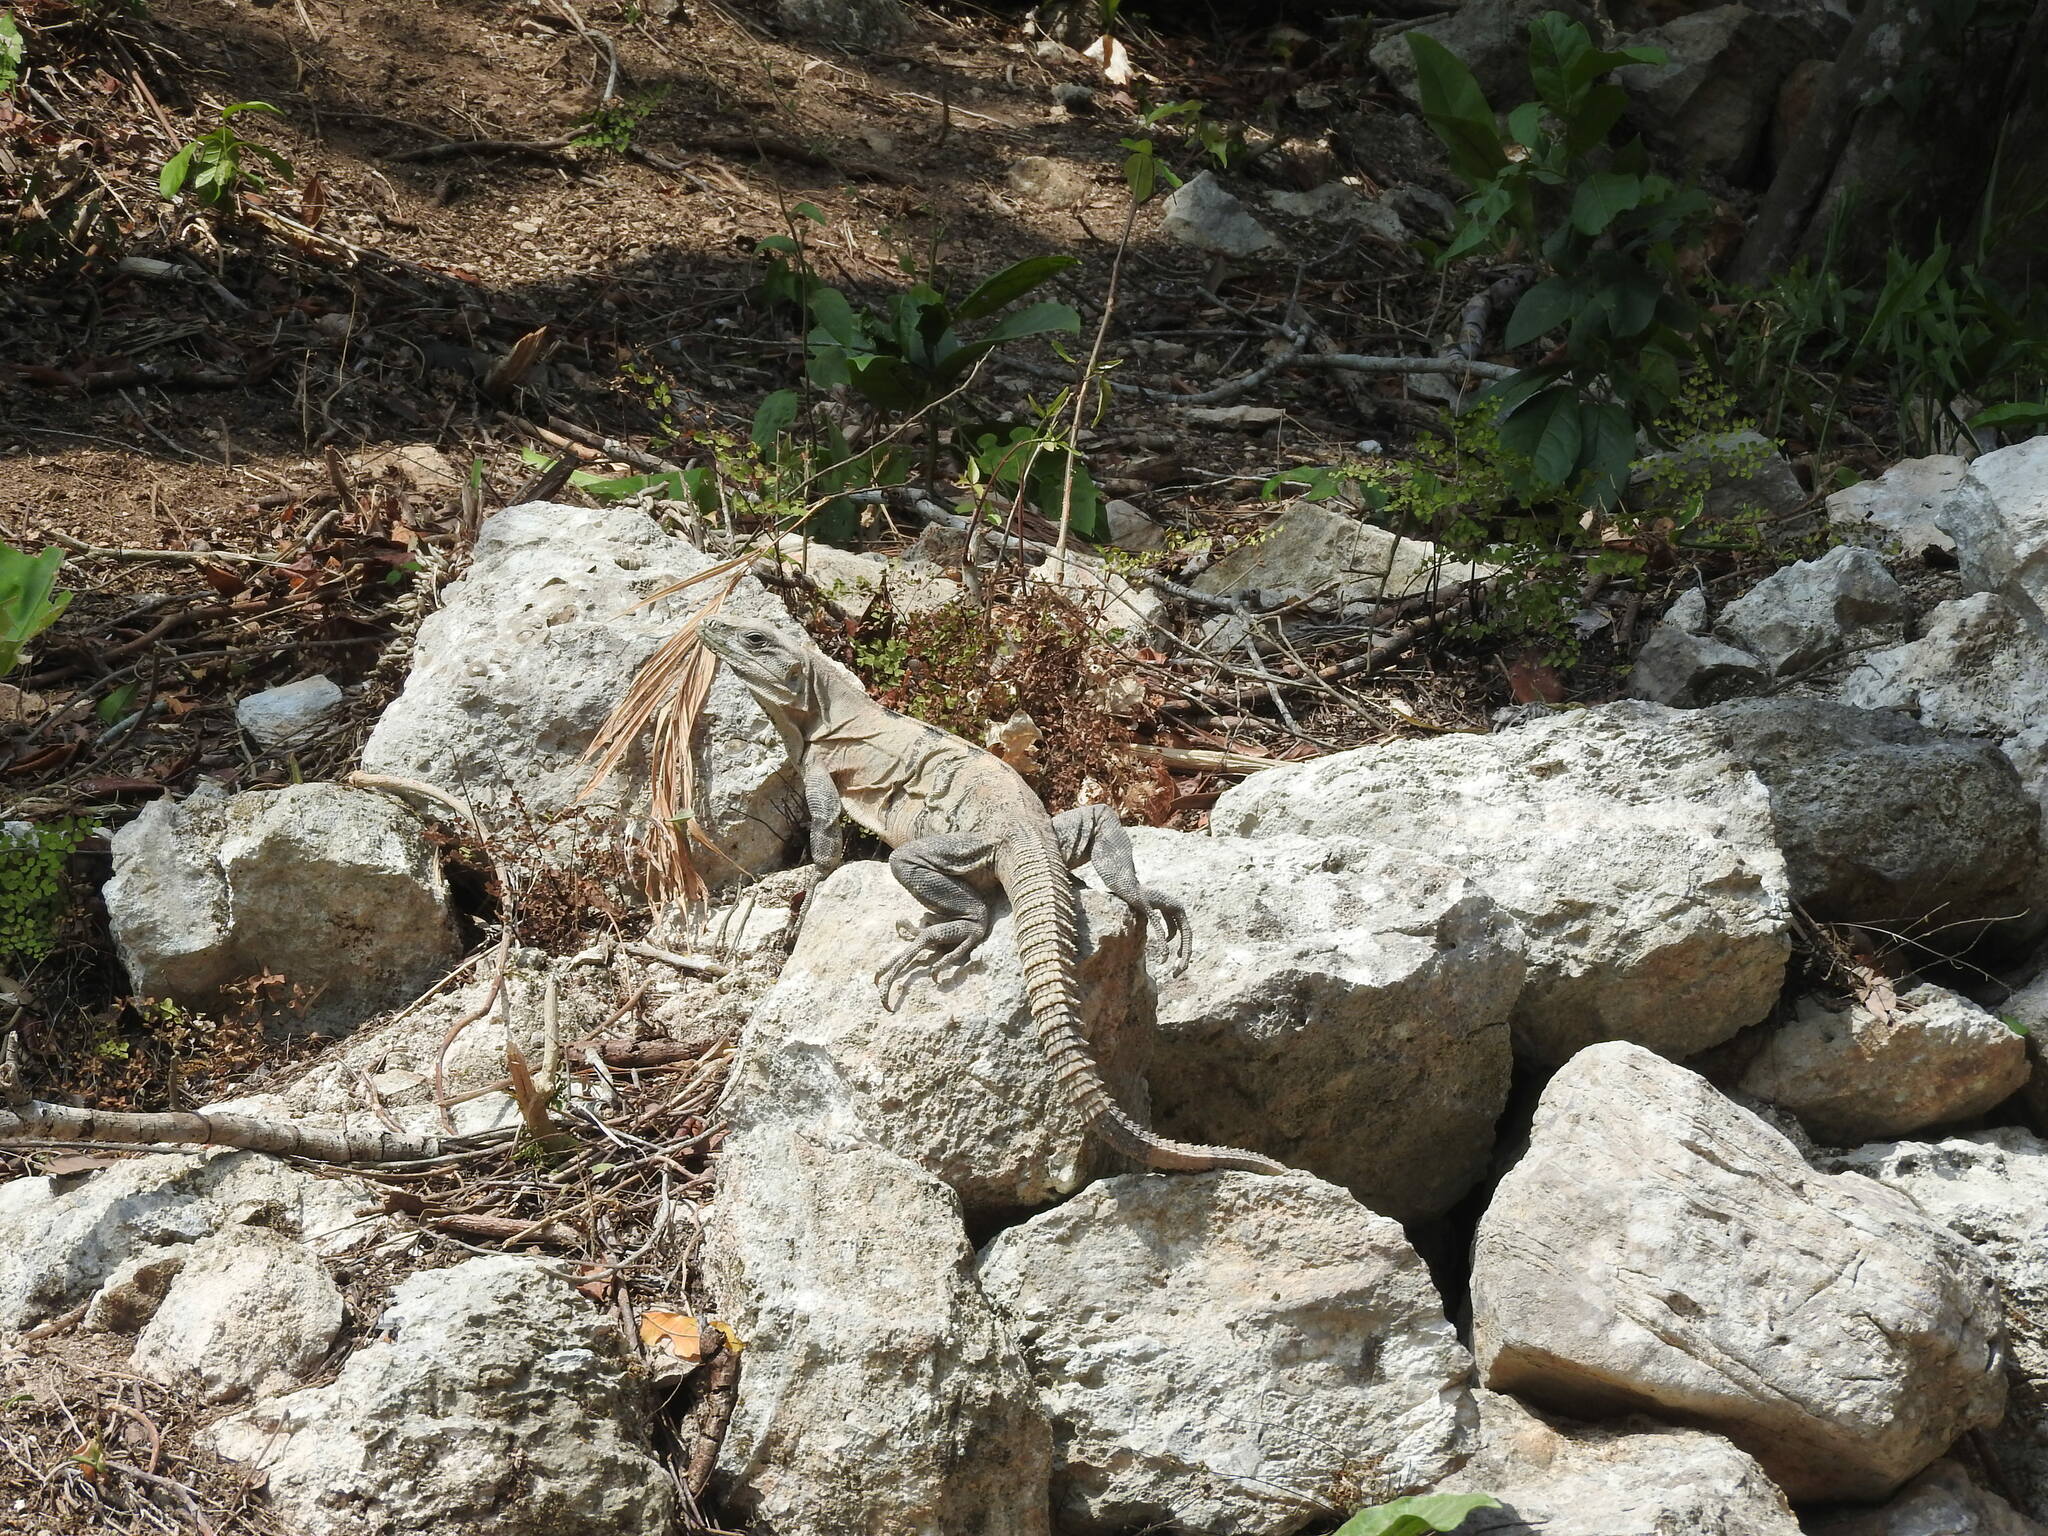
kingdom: Animalia
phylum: Chordata
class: Squamata
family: Iguanidae
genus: Ctenosaura
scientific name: Ctenosaura similis
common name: Black spiny-tailed iguana
